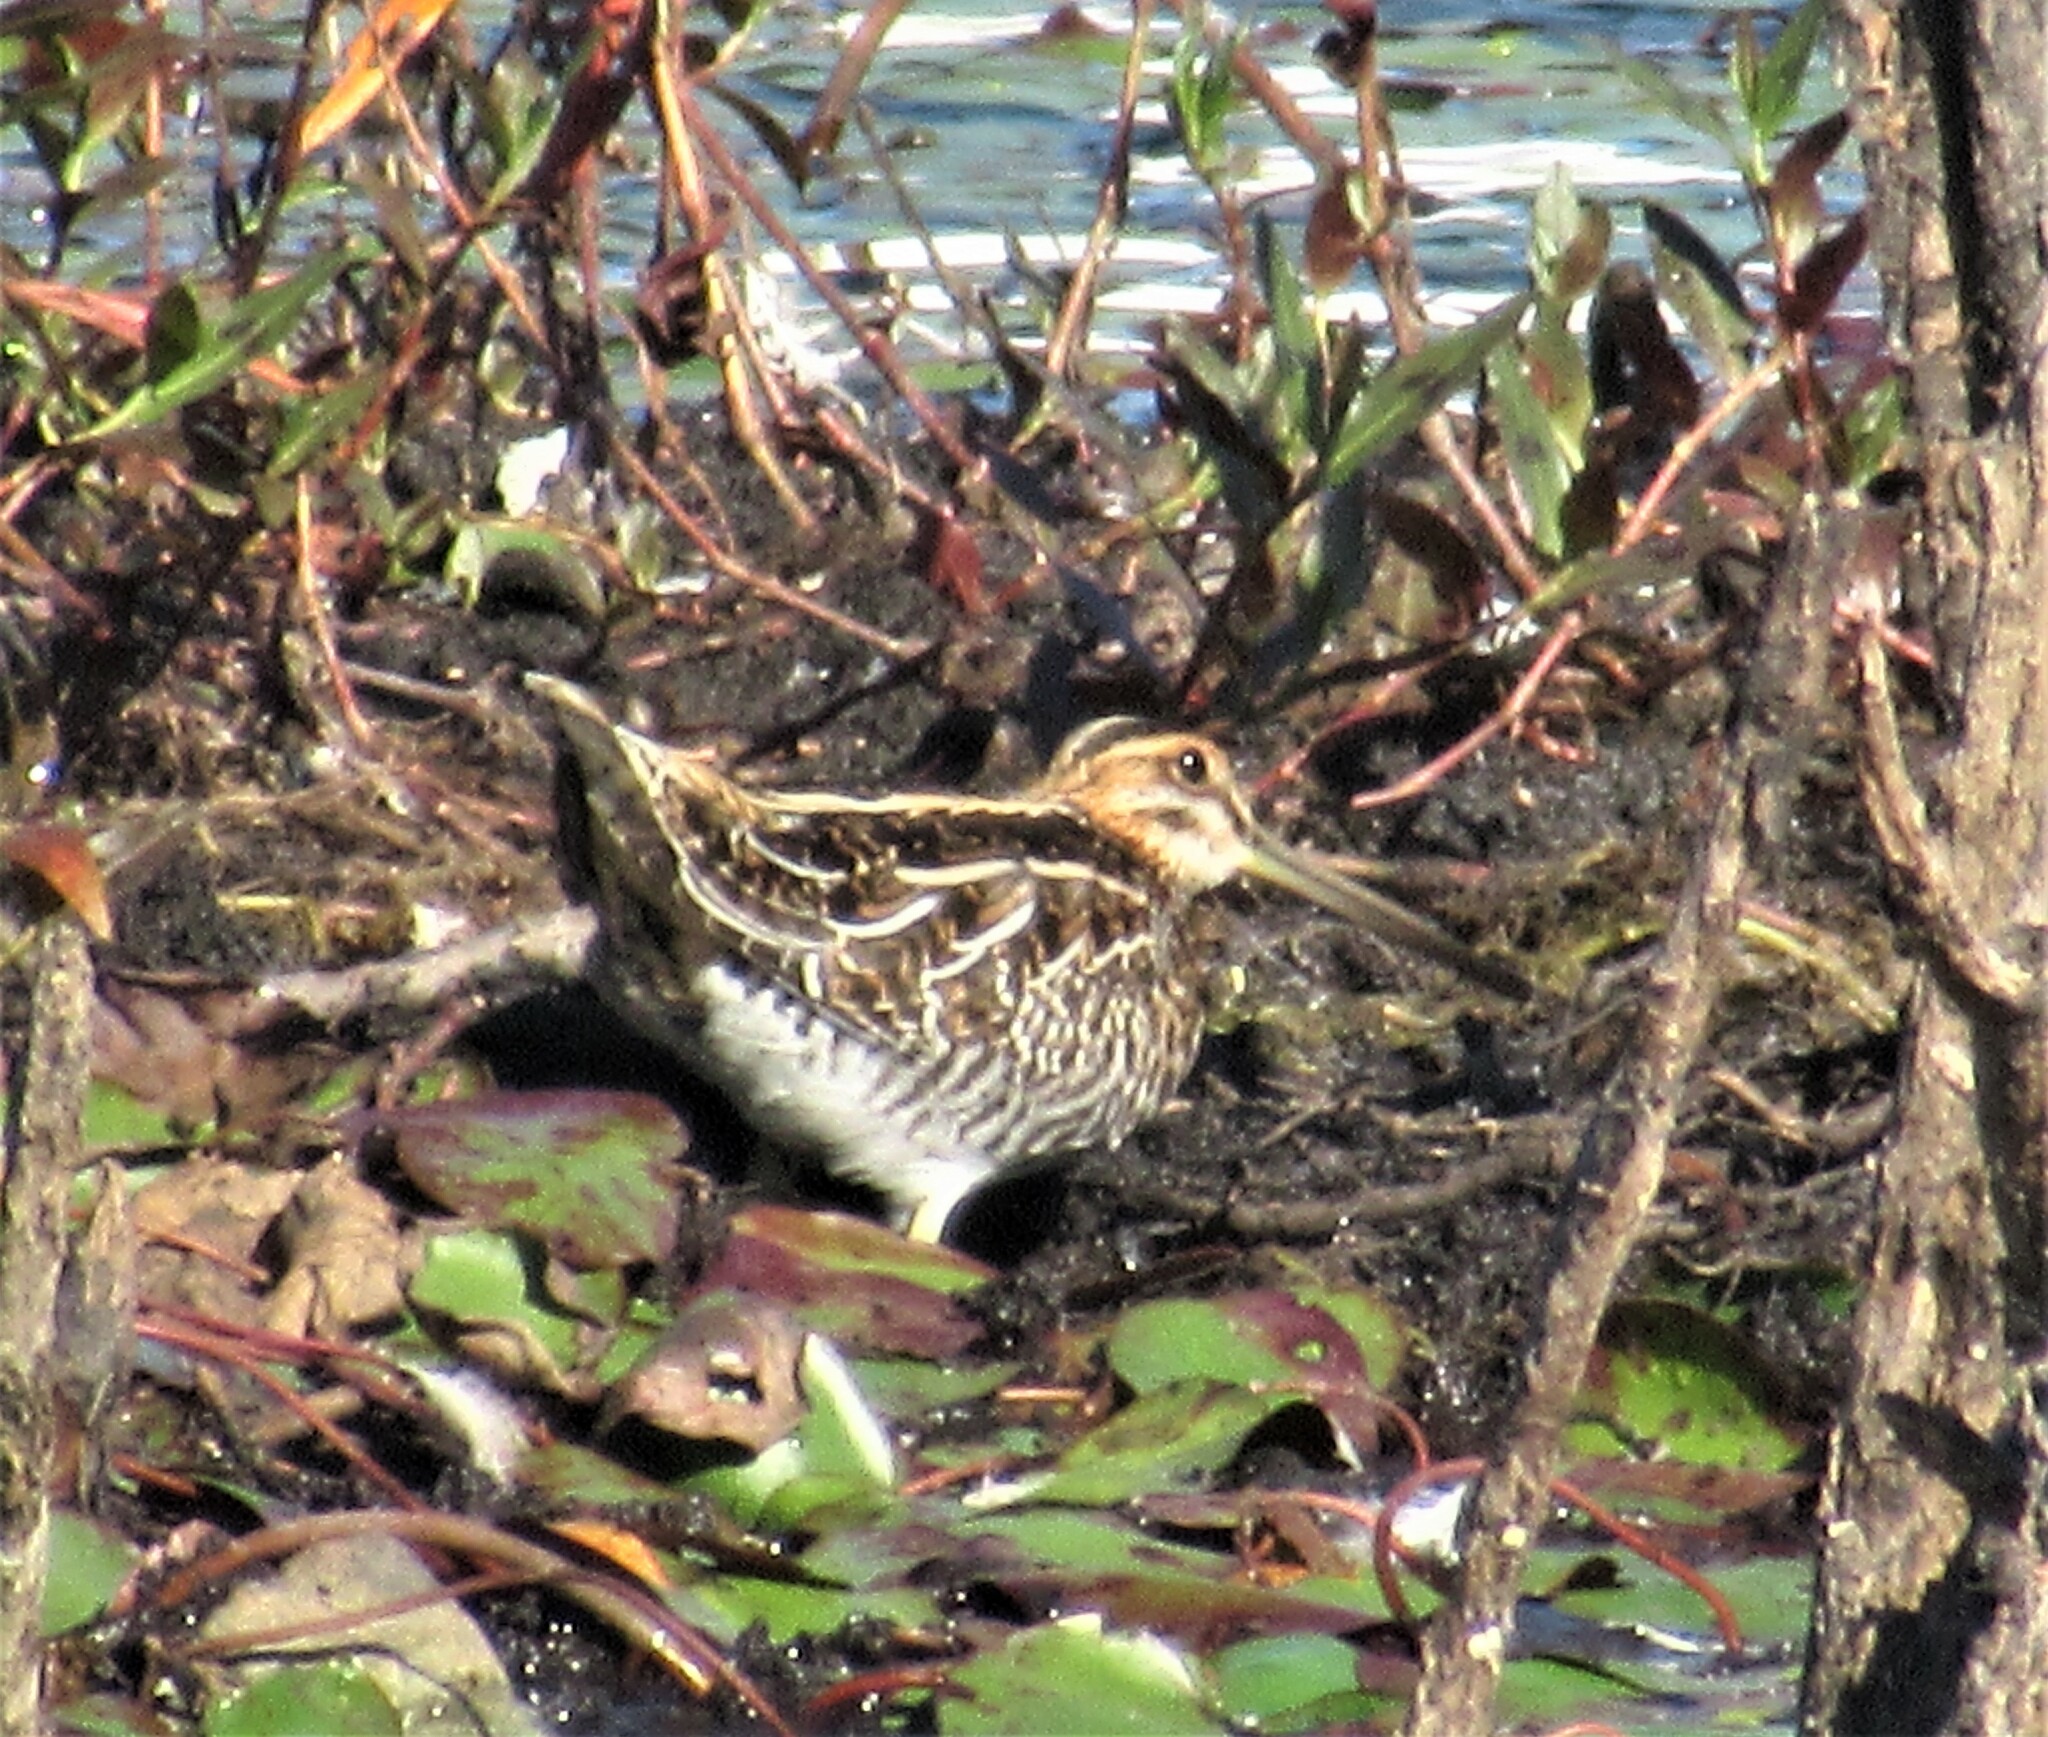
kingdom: Animalia
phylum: Chordata
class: Aves
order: Charadriiformes
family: Scolopacidae
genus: Gallinago
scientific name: Gallinago delicata
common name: Wilson's snipe
